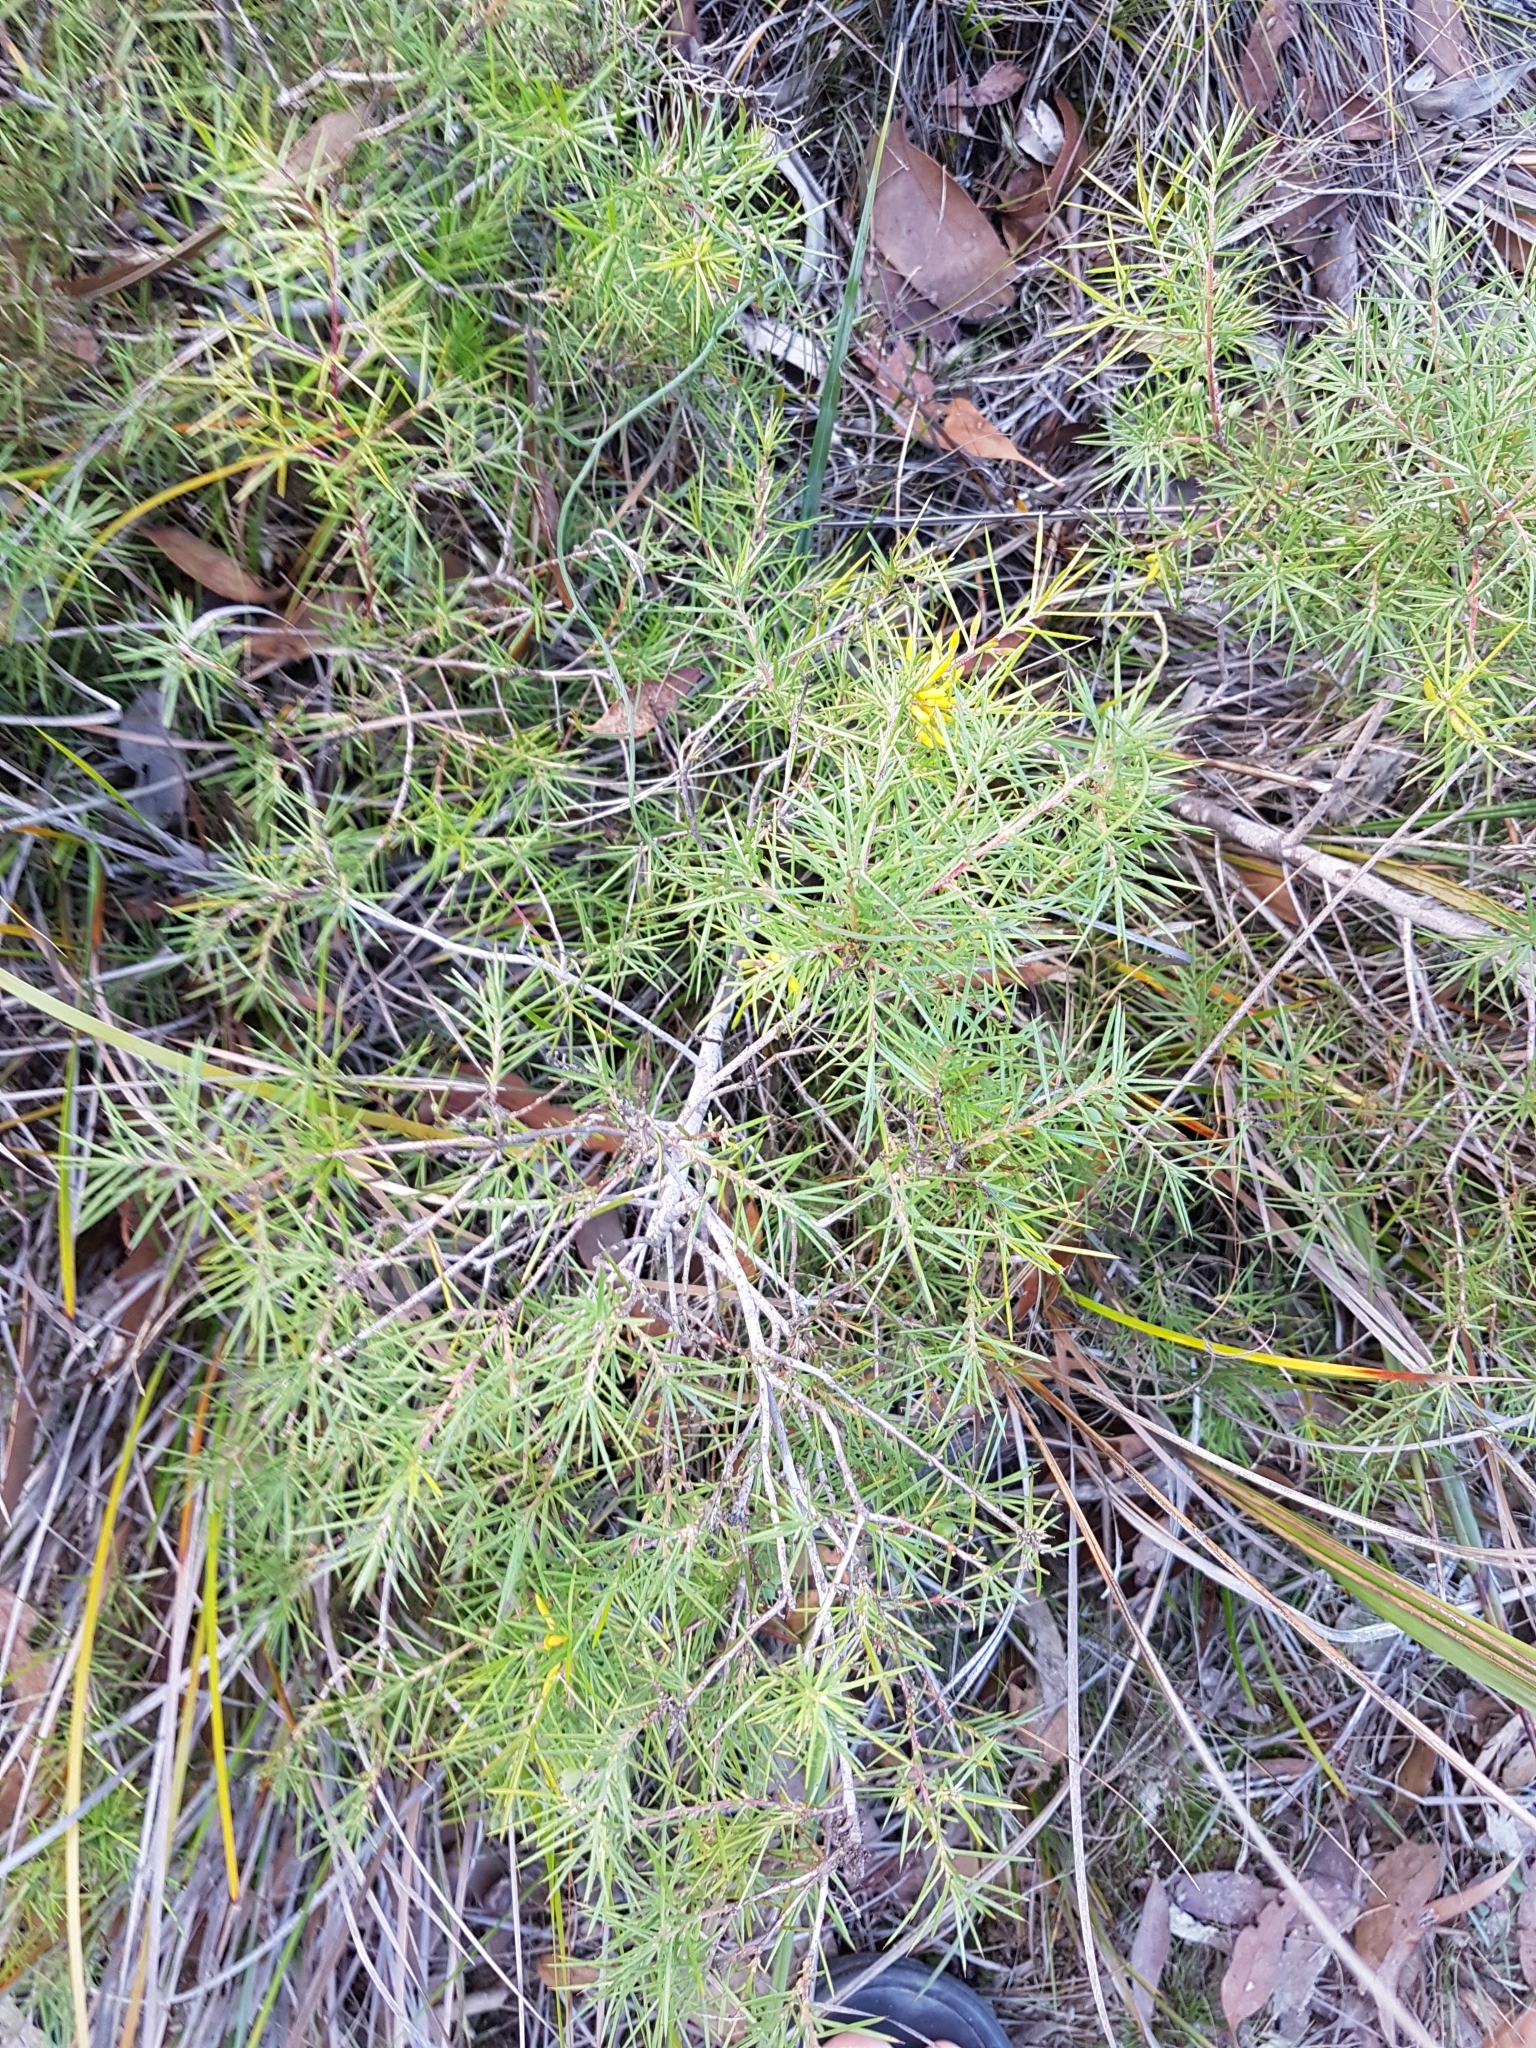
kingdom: Plantae
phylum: Tracheophyta
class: Magnoliopsida
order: Proteales
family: Proteaceae
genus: Persoonia
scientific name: Persoonia juniperina
